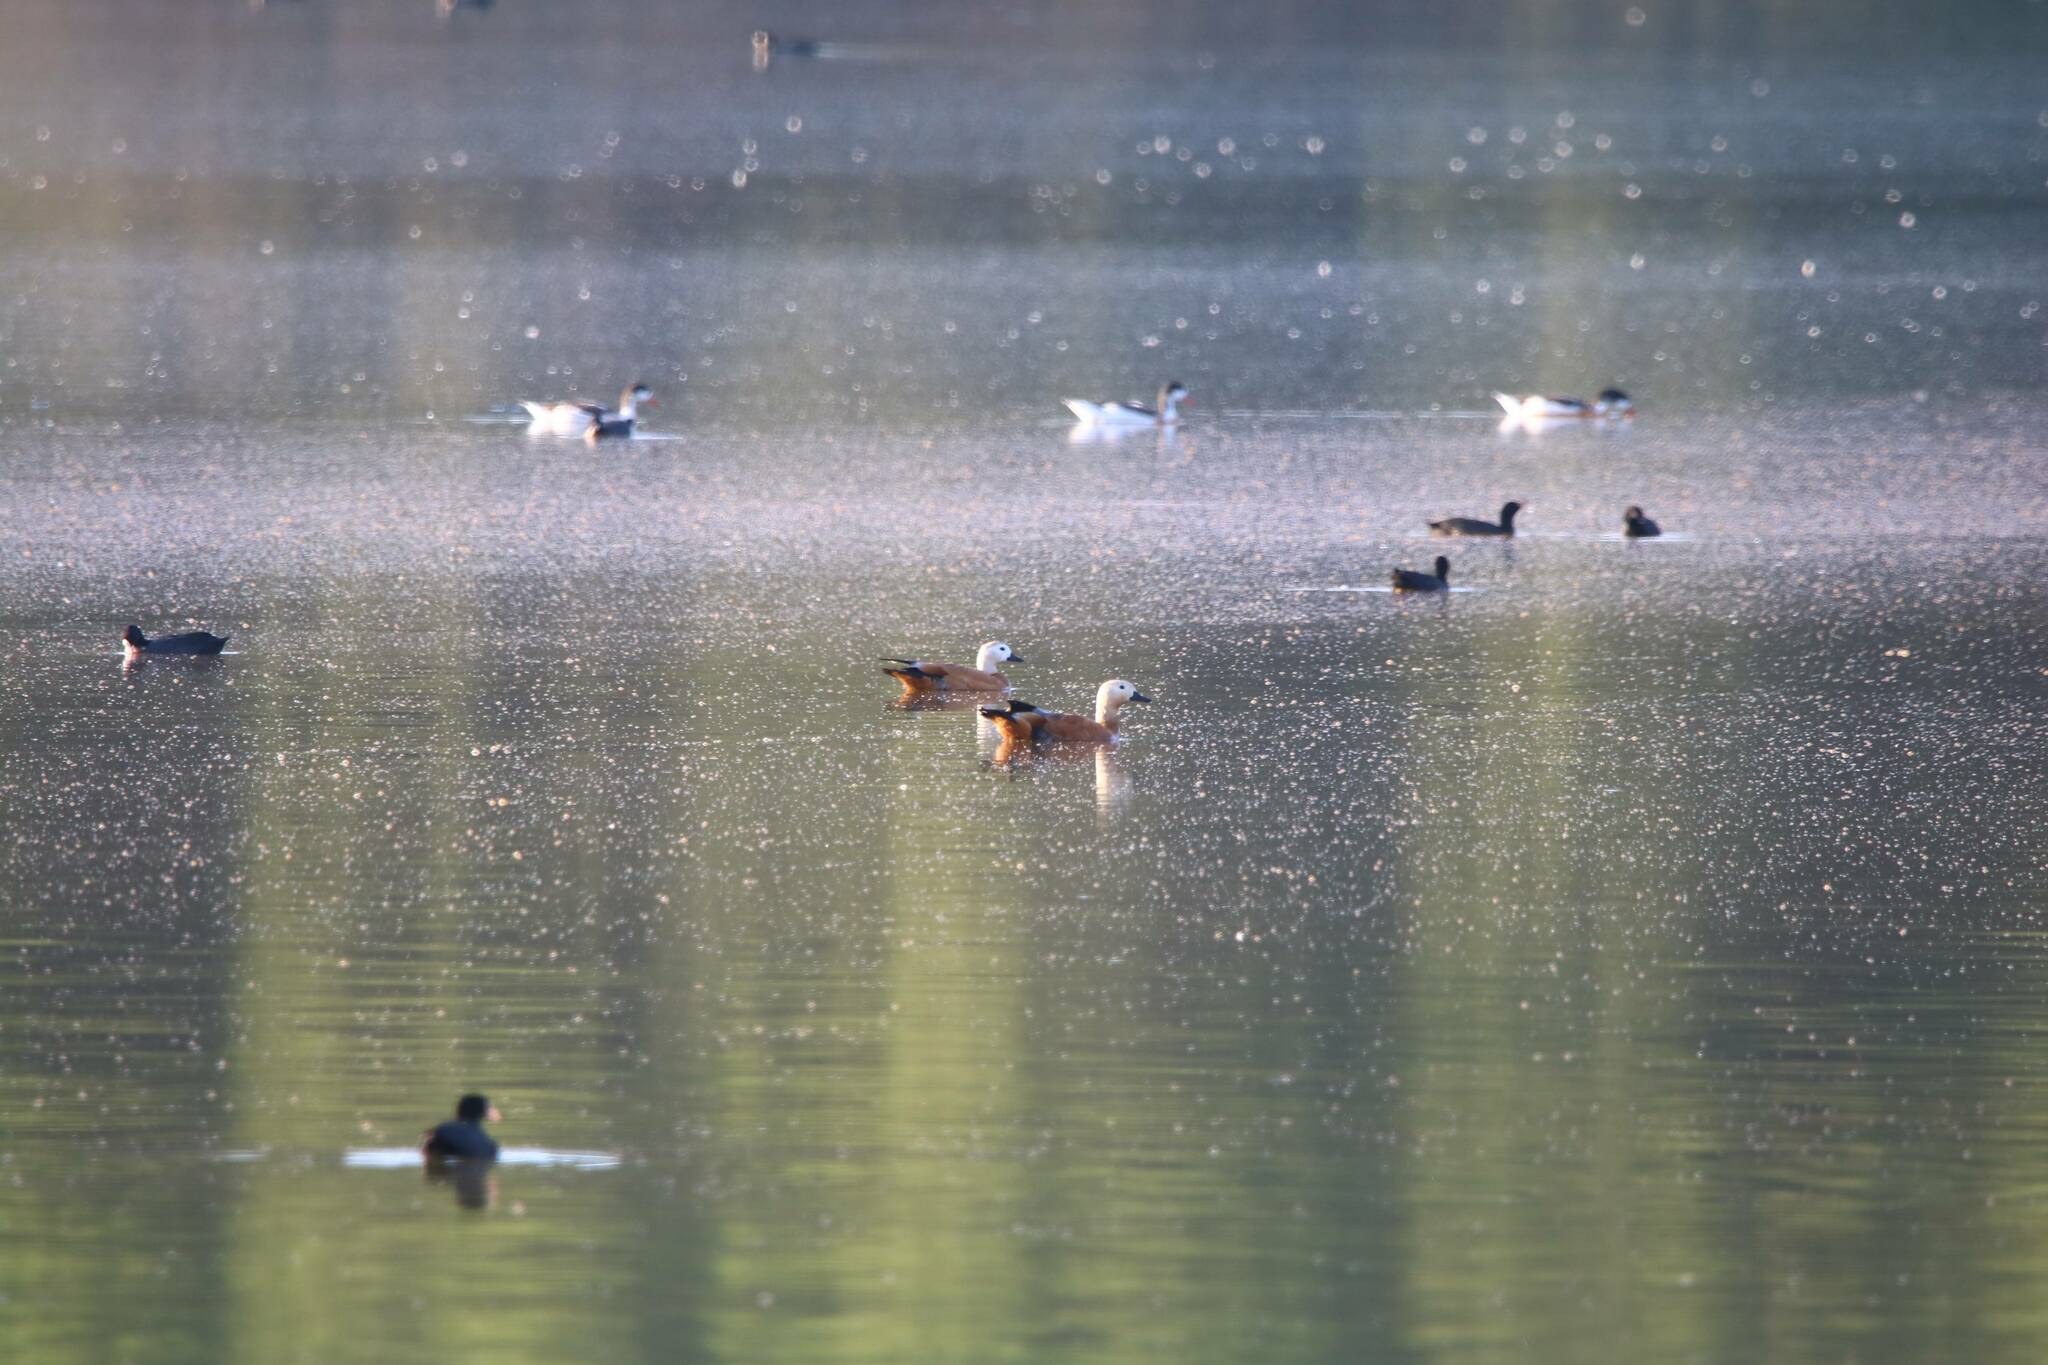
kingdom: Animalia
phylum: Chordata
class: Aves
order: Anseriformes
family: Anatidae
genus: Tadorna
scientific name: Tadorna ferruginea
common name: Ruddy shelduck
